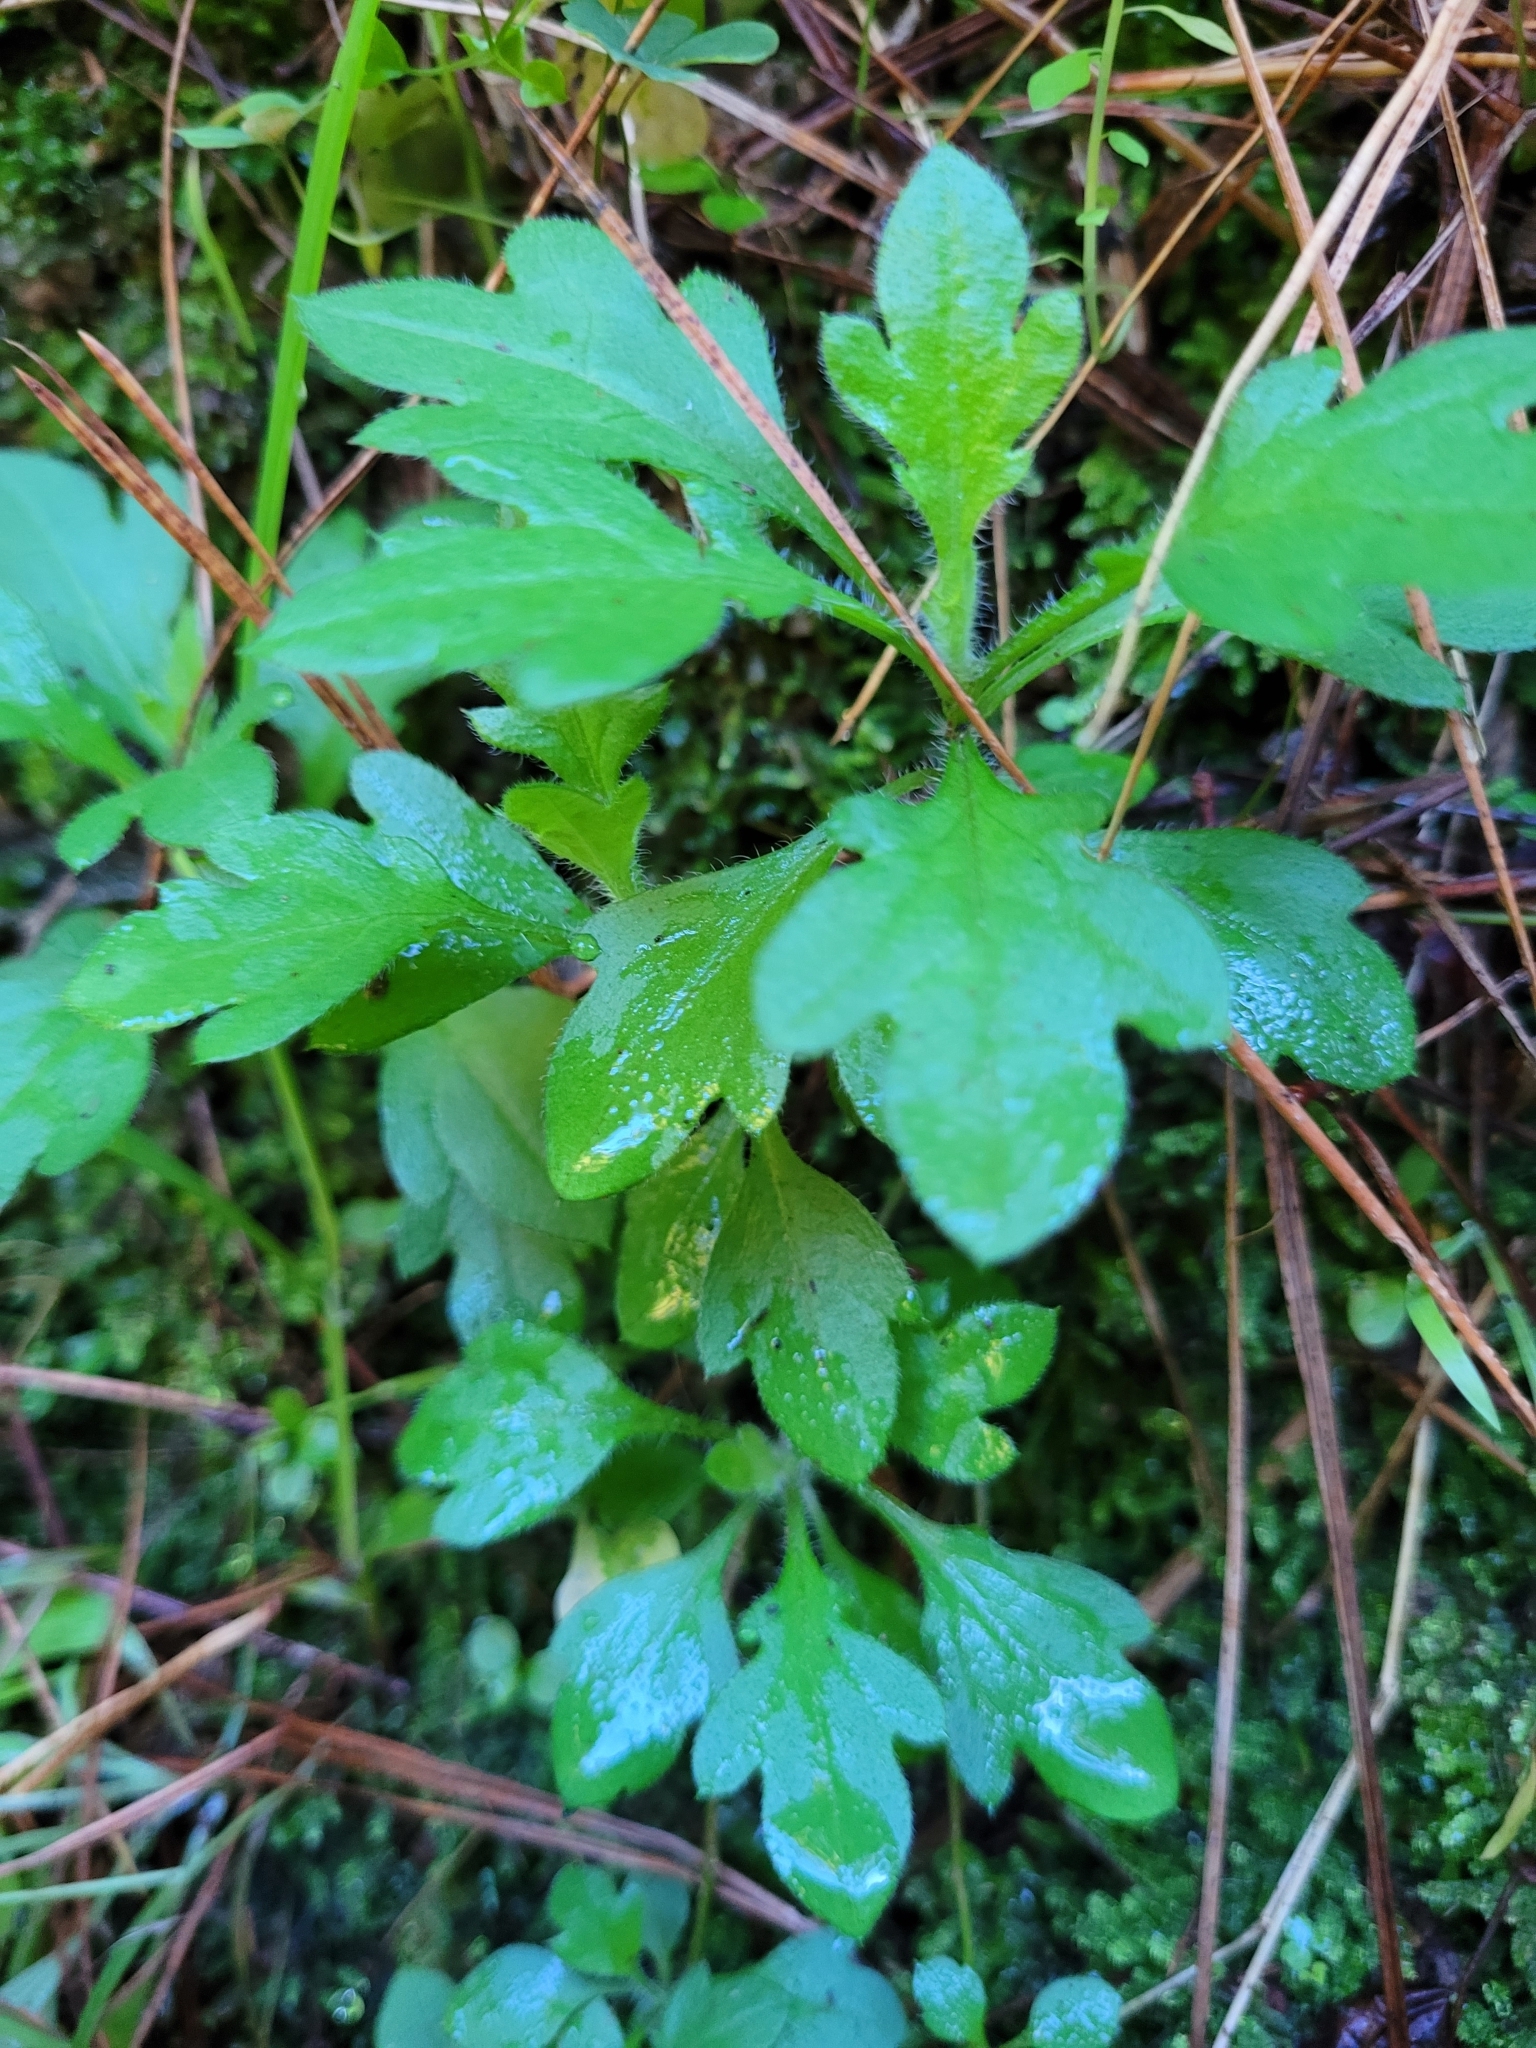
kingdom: Plantae
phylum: Tracheophyta
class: Magnoliopsida
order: Asterales
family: Asteraceae
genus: Erigeron
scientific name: Erigeron karvinskianus
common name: Mexican fleabane
